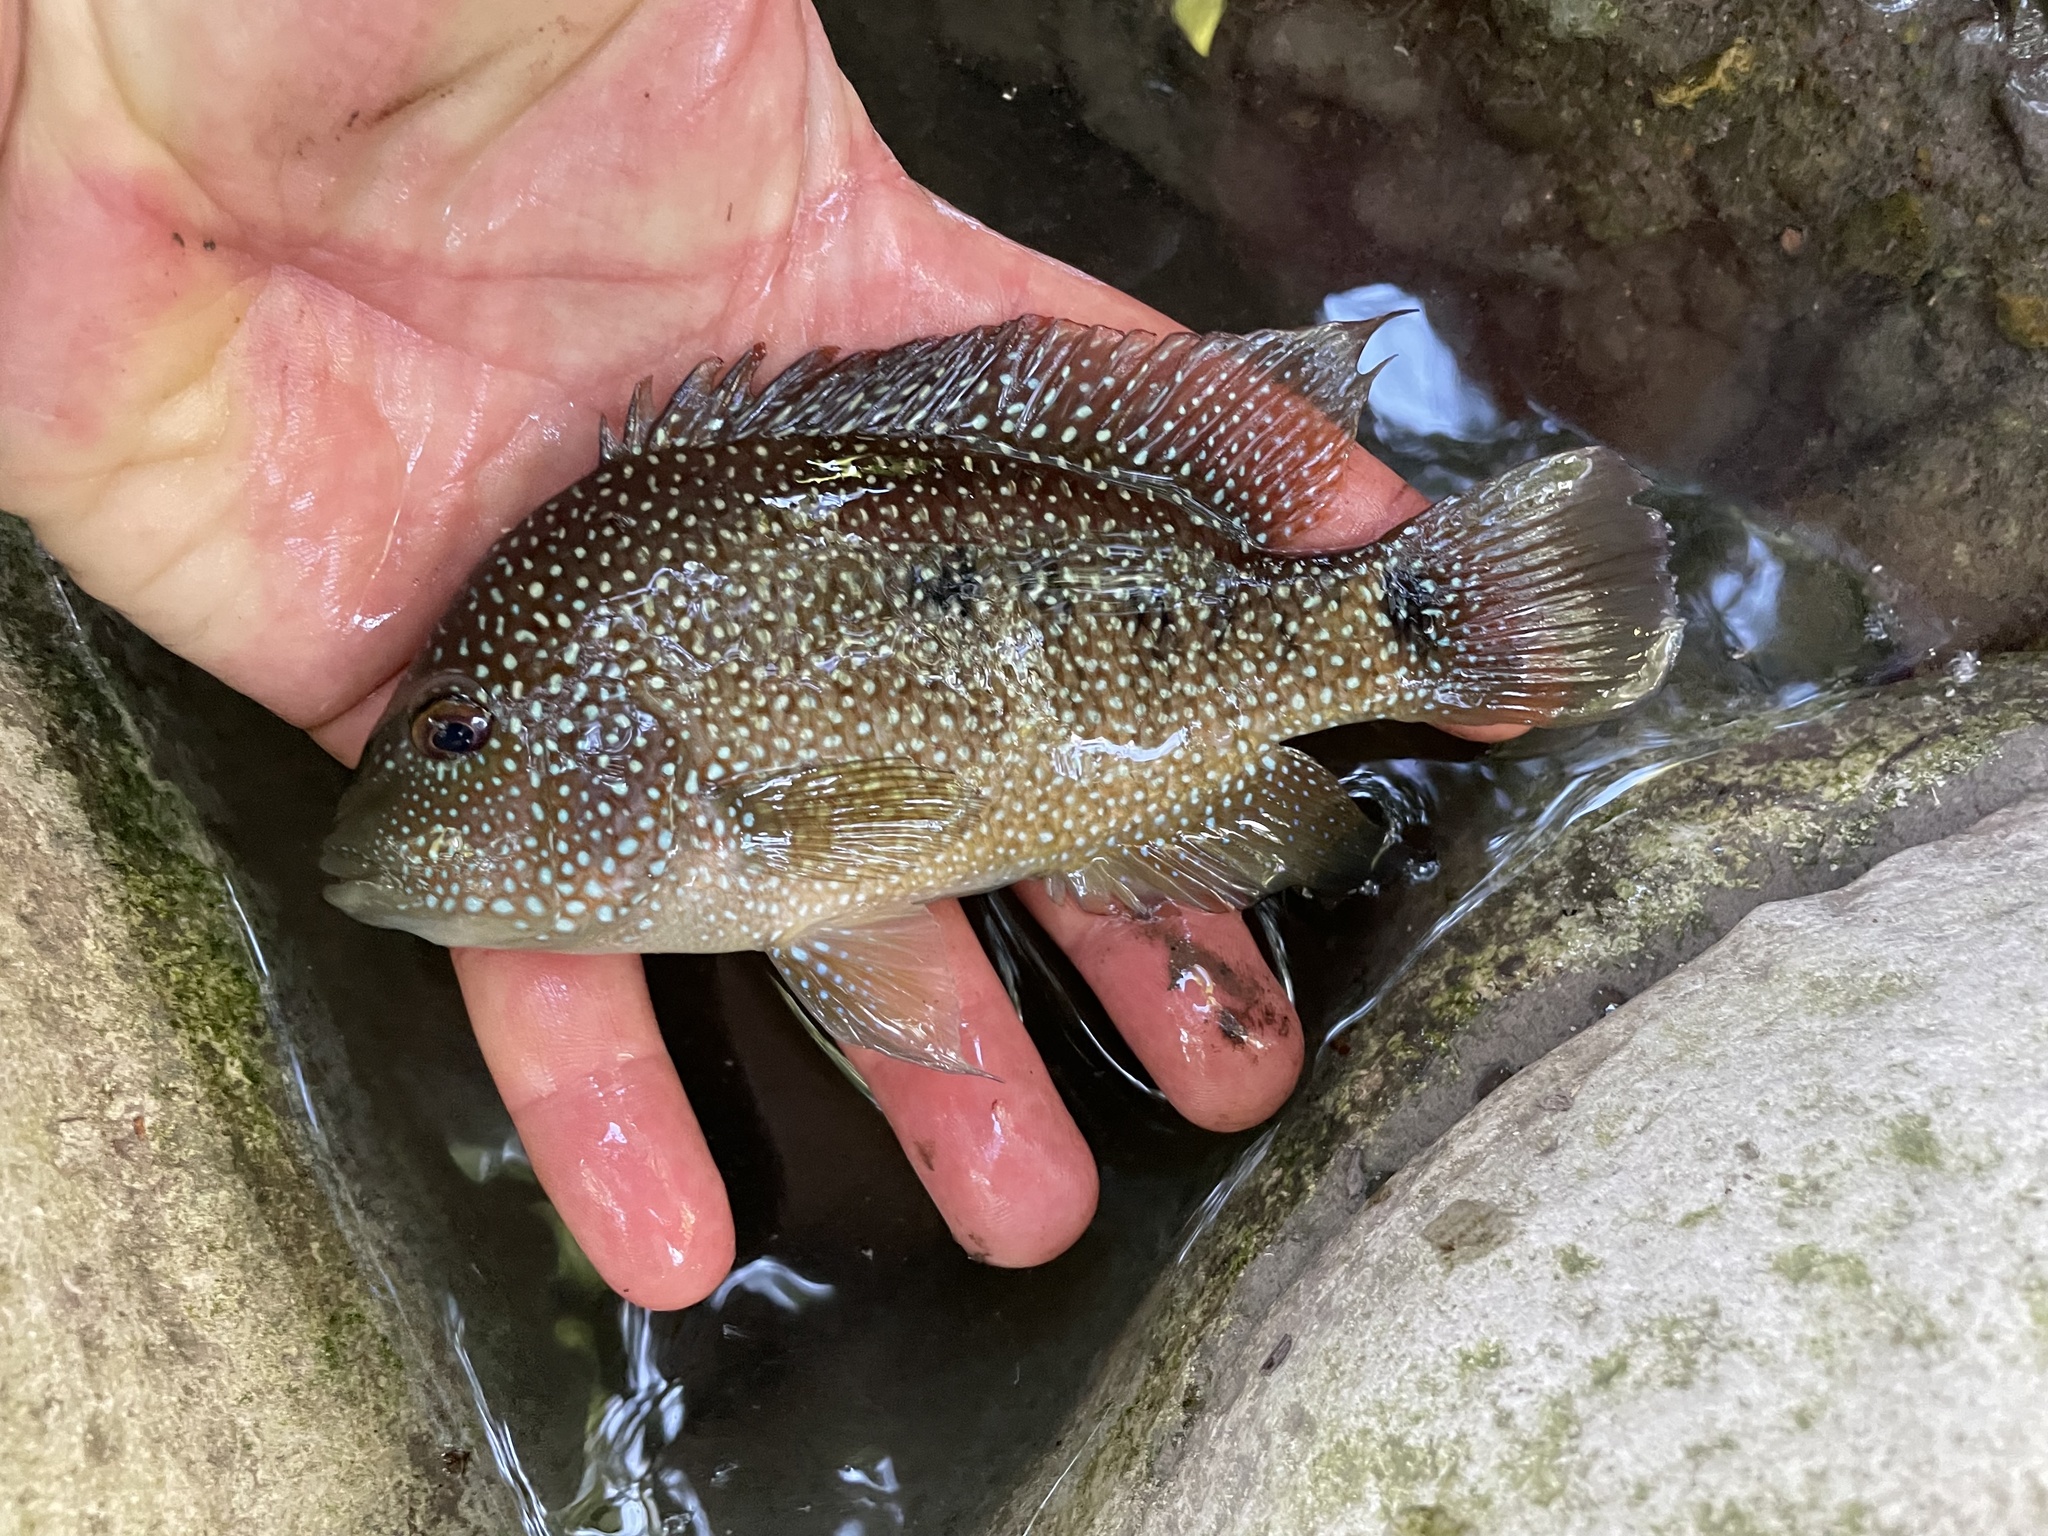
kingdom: Animalia
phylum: Chordata
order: Perciformes
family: Cichlidae
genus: Herichthys
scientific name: Herichthys cyanoguttatus
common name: Rio grande cichlid
